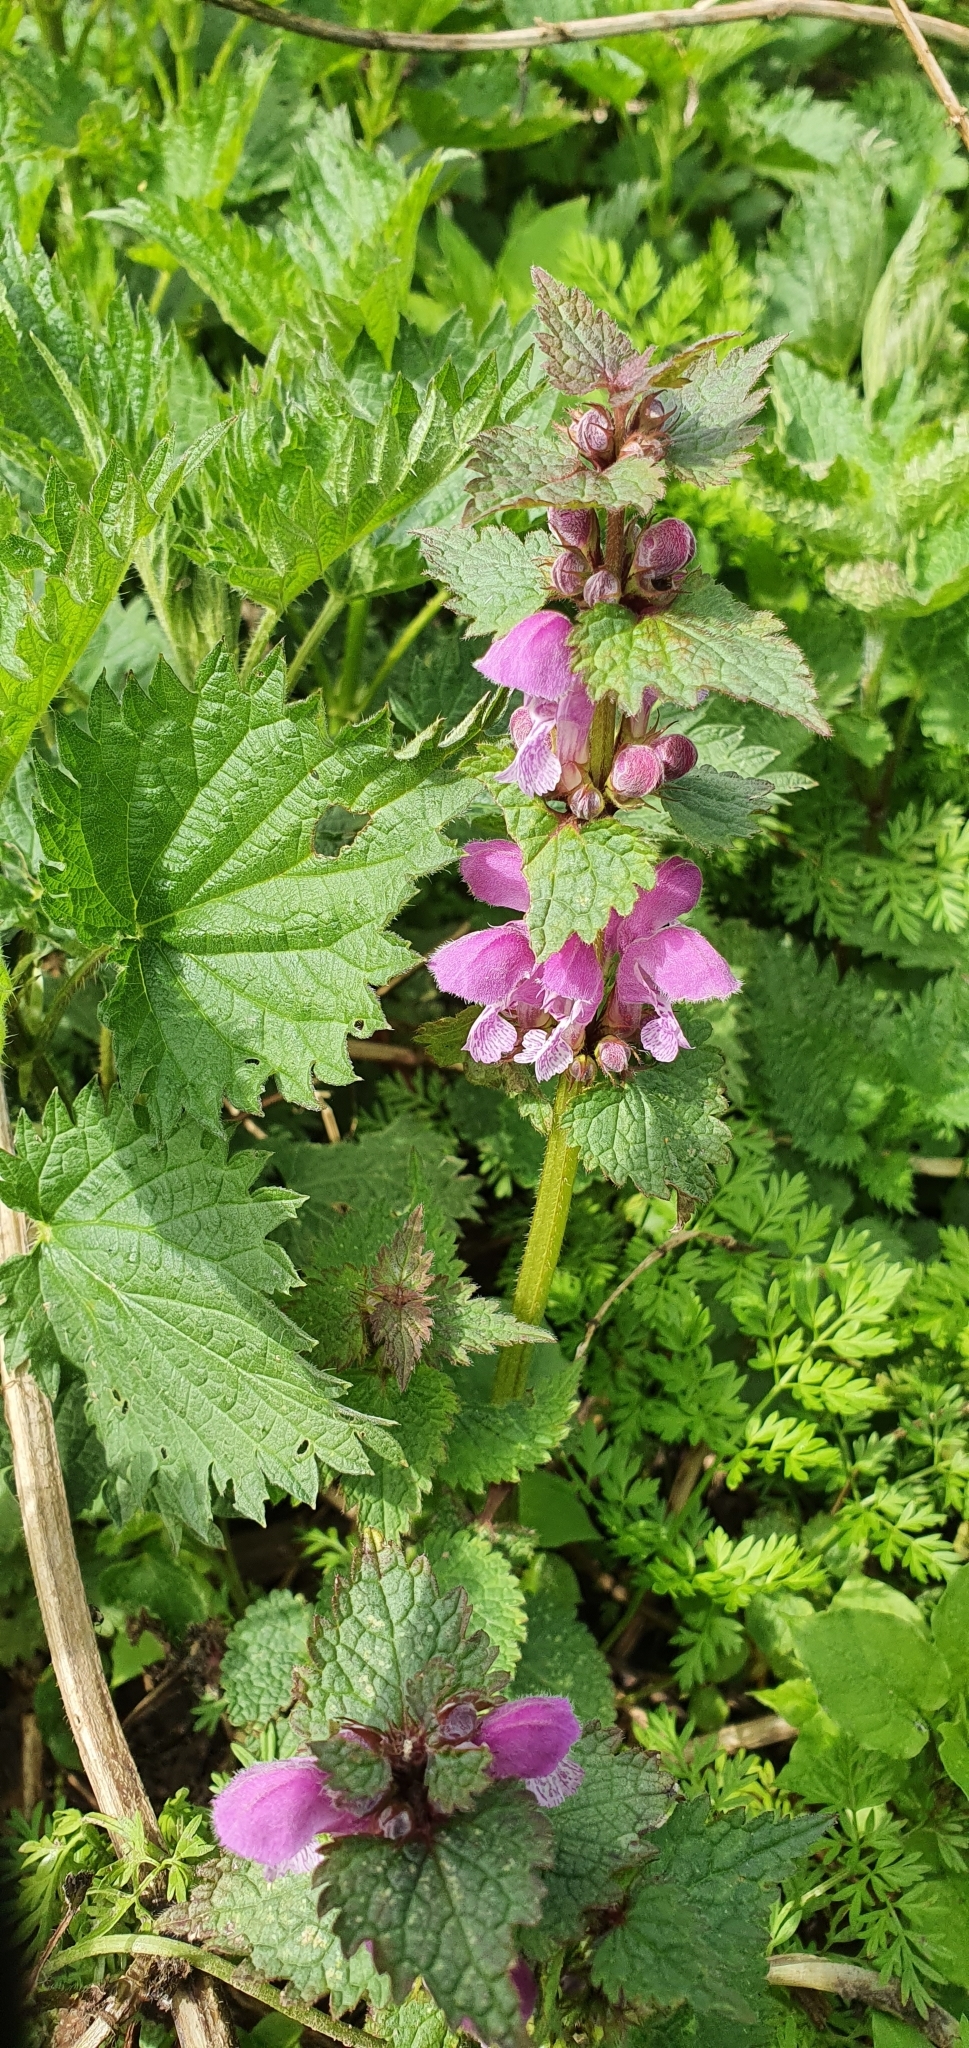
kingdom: Plantae
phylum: Tracheophyta
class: Magnoliopsida
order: Lamiales
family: Lamiaceae
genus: Lamium
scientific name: Lamium maculatum
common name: Spotted dead-nettle
